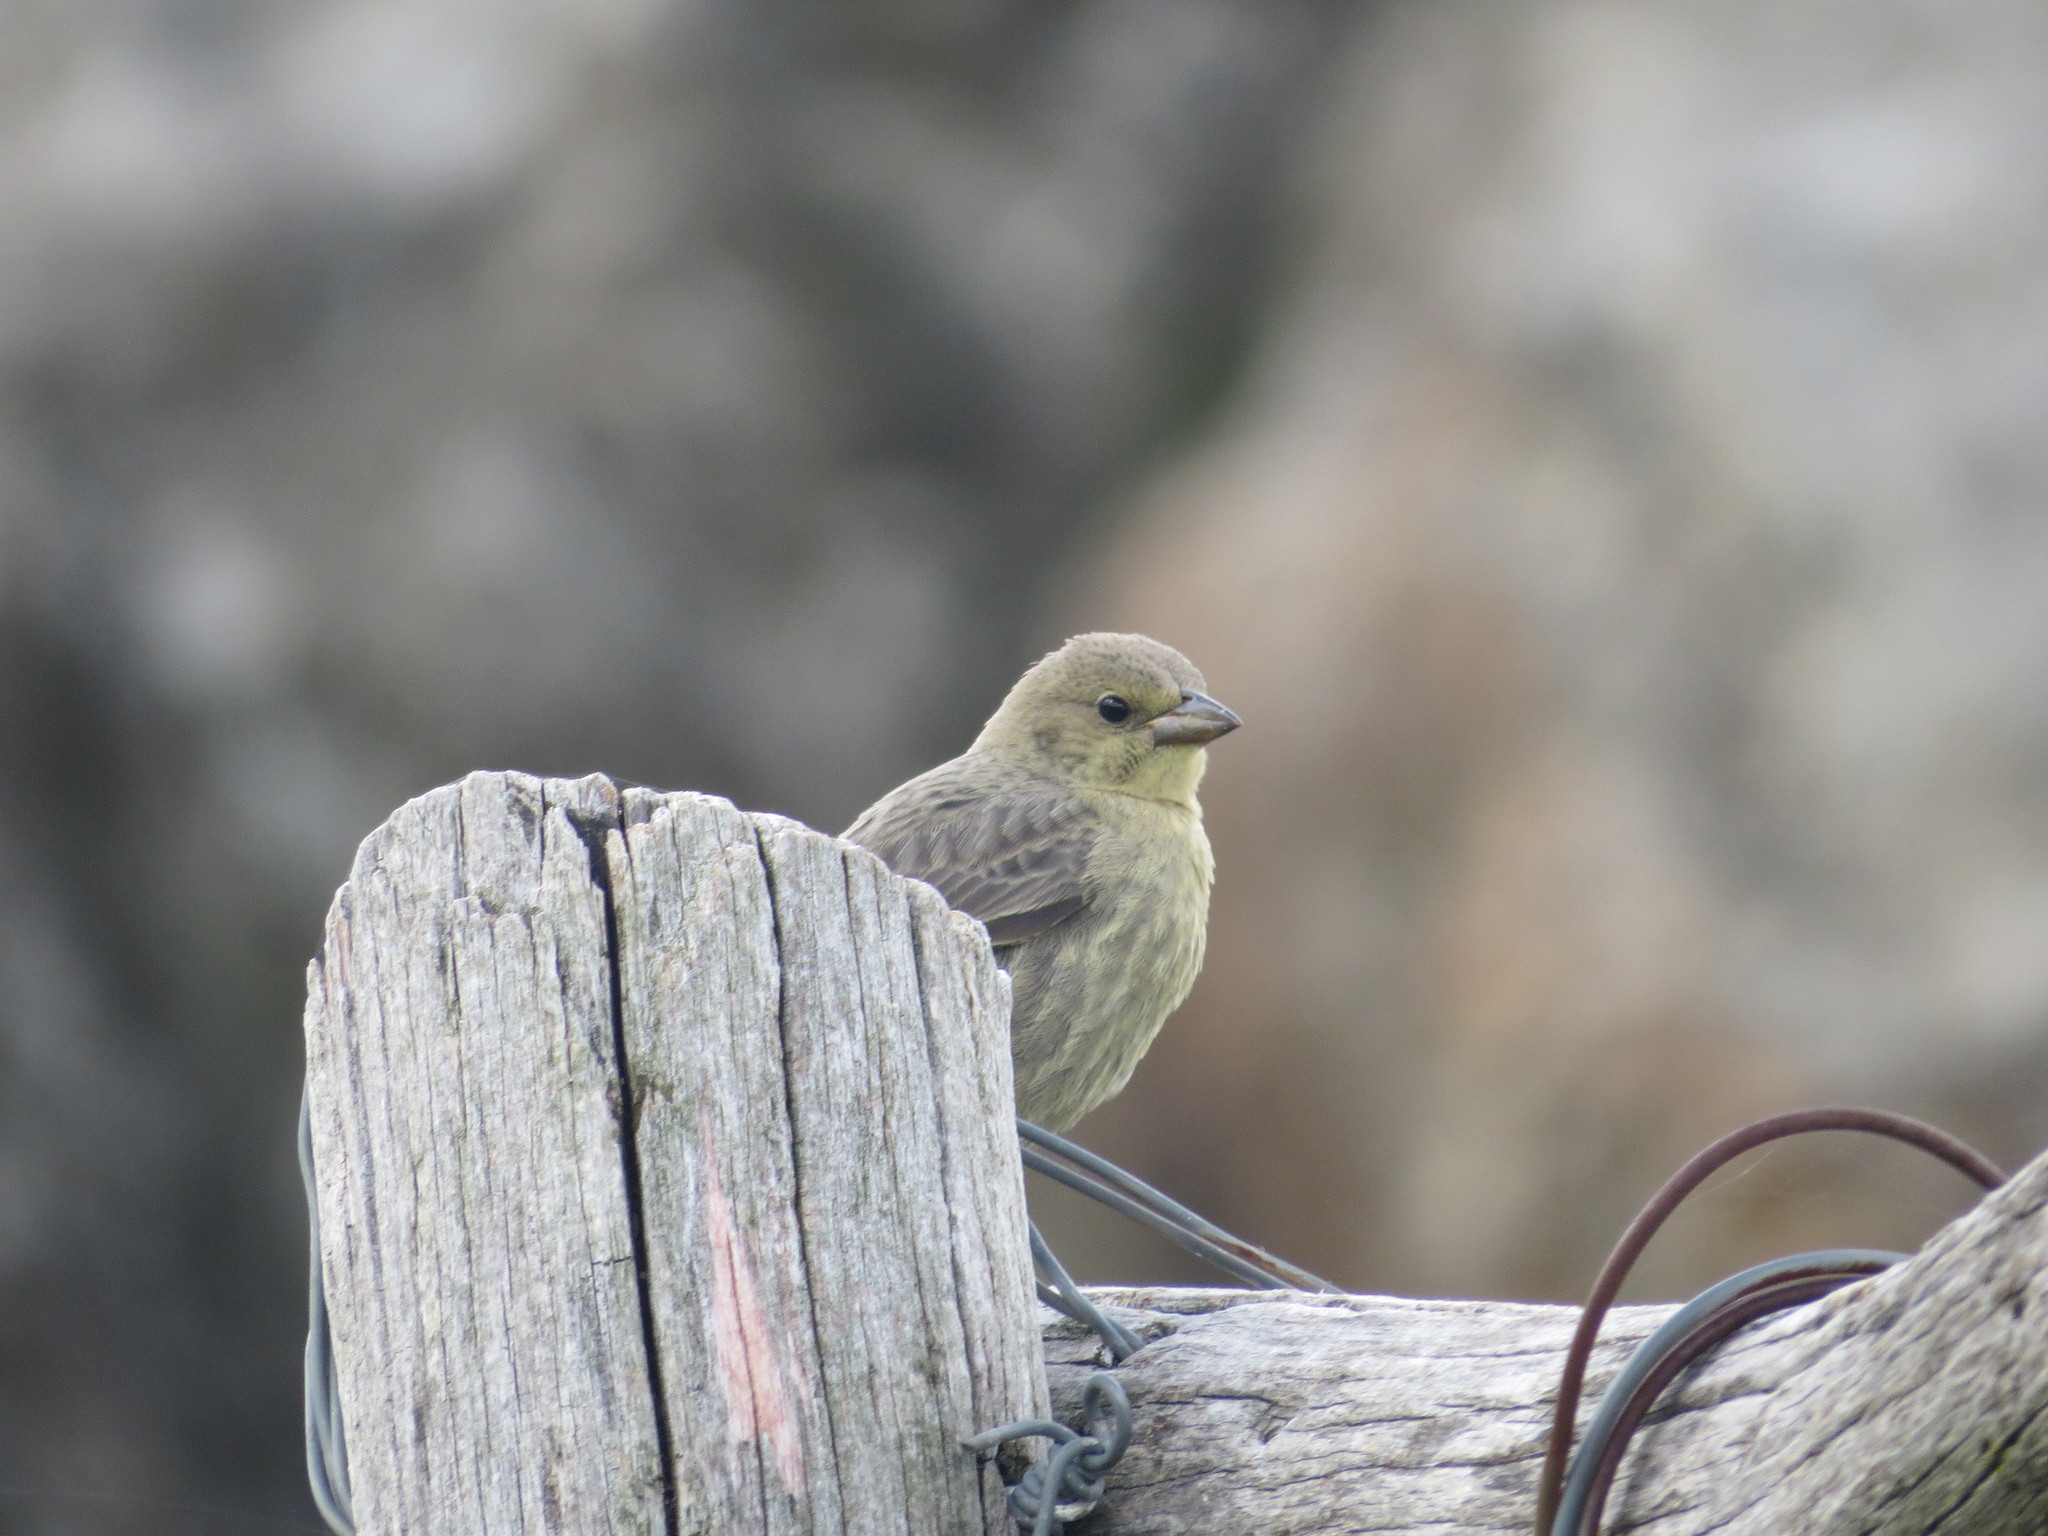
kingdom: Animalia
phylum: Chordata
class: Aves
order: Passeriformes
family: Icteridae
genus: Molothrus
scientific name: Molothrus bonariensis
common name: Shiny cowbird
